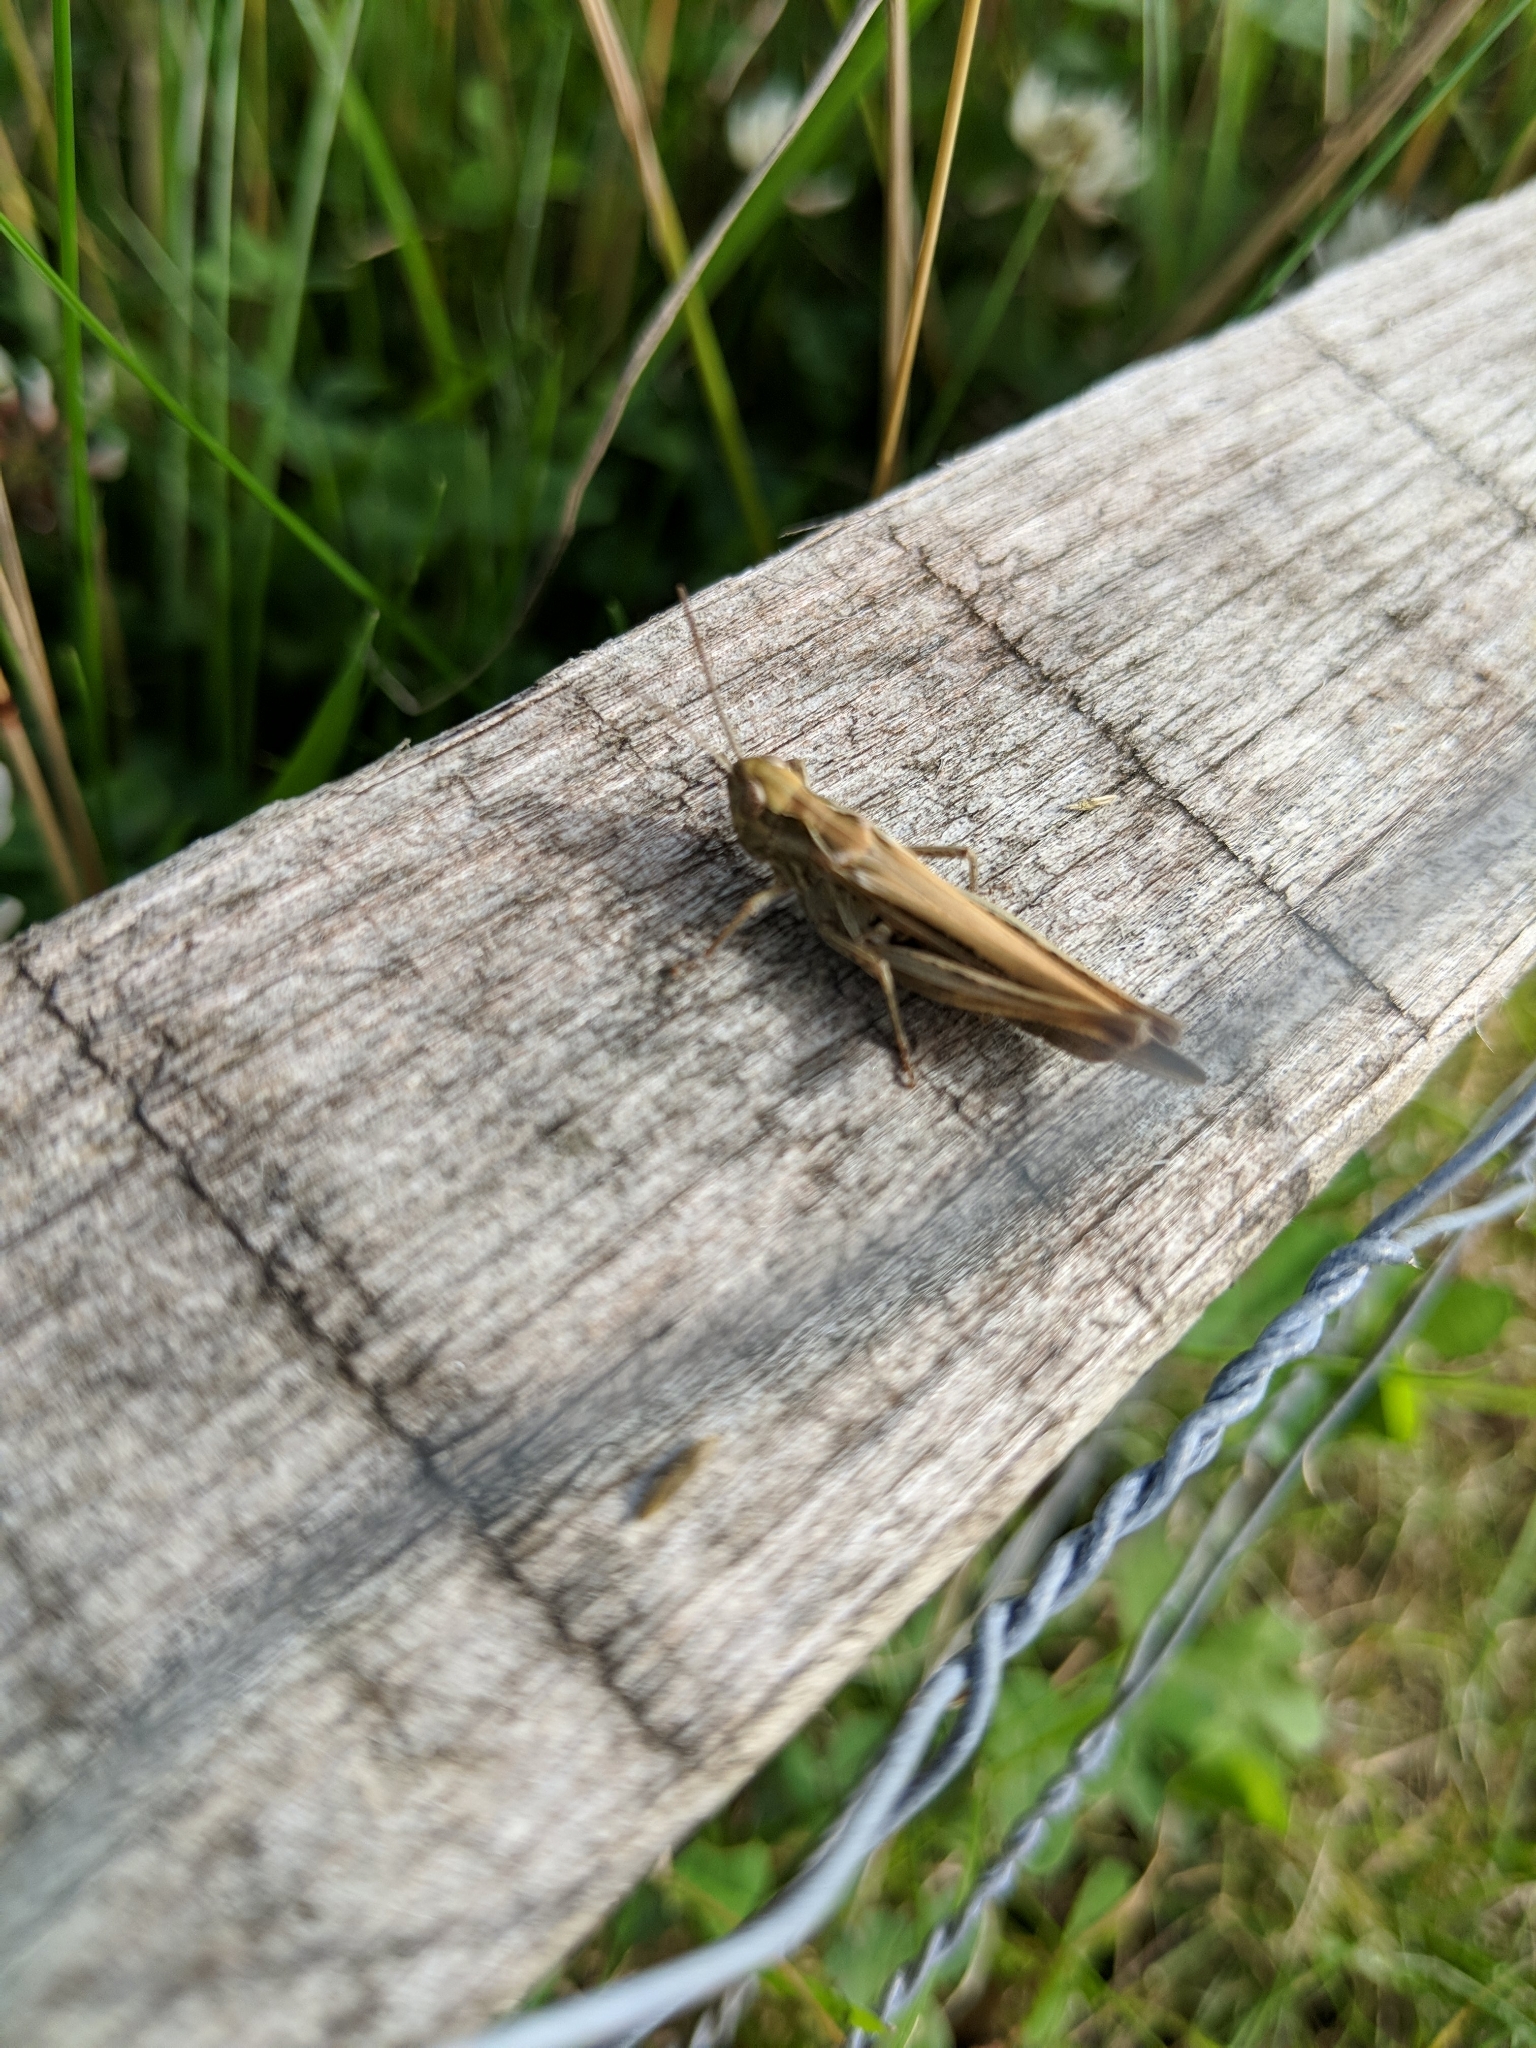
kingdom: Animalia
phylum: Arthropoda
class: Insecta
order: Orthoptera
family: Acrididae
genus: Chorthippus
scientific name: Chorthippus brunneus
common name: Field grasshopper
